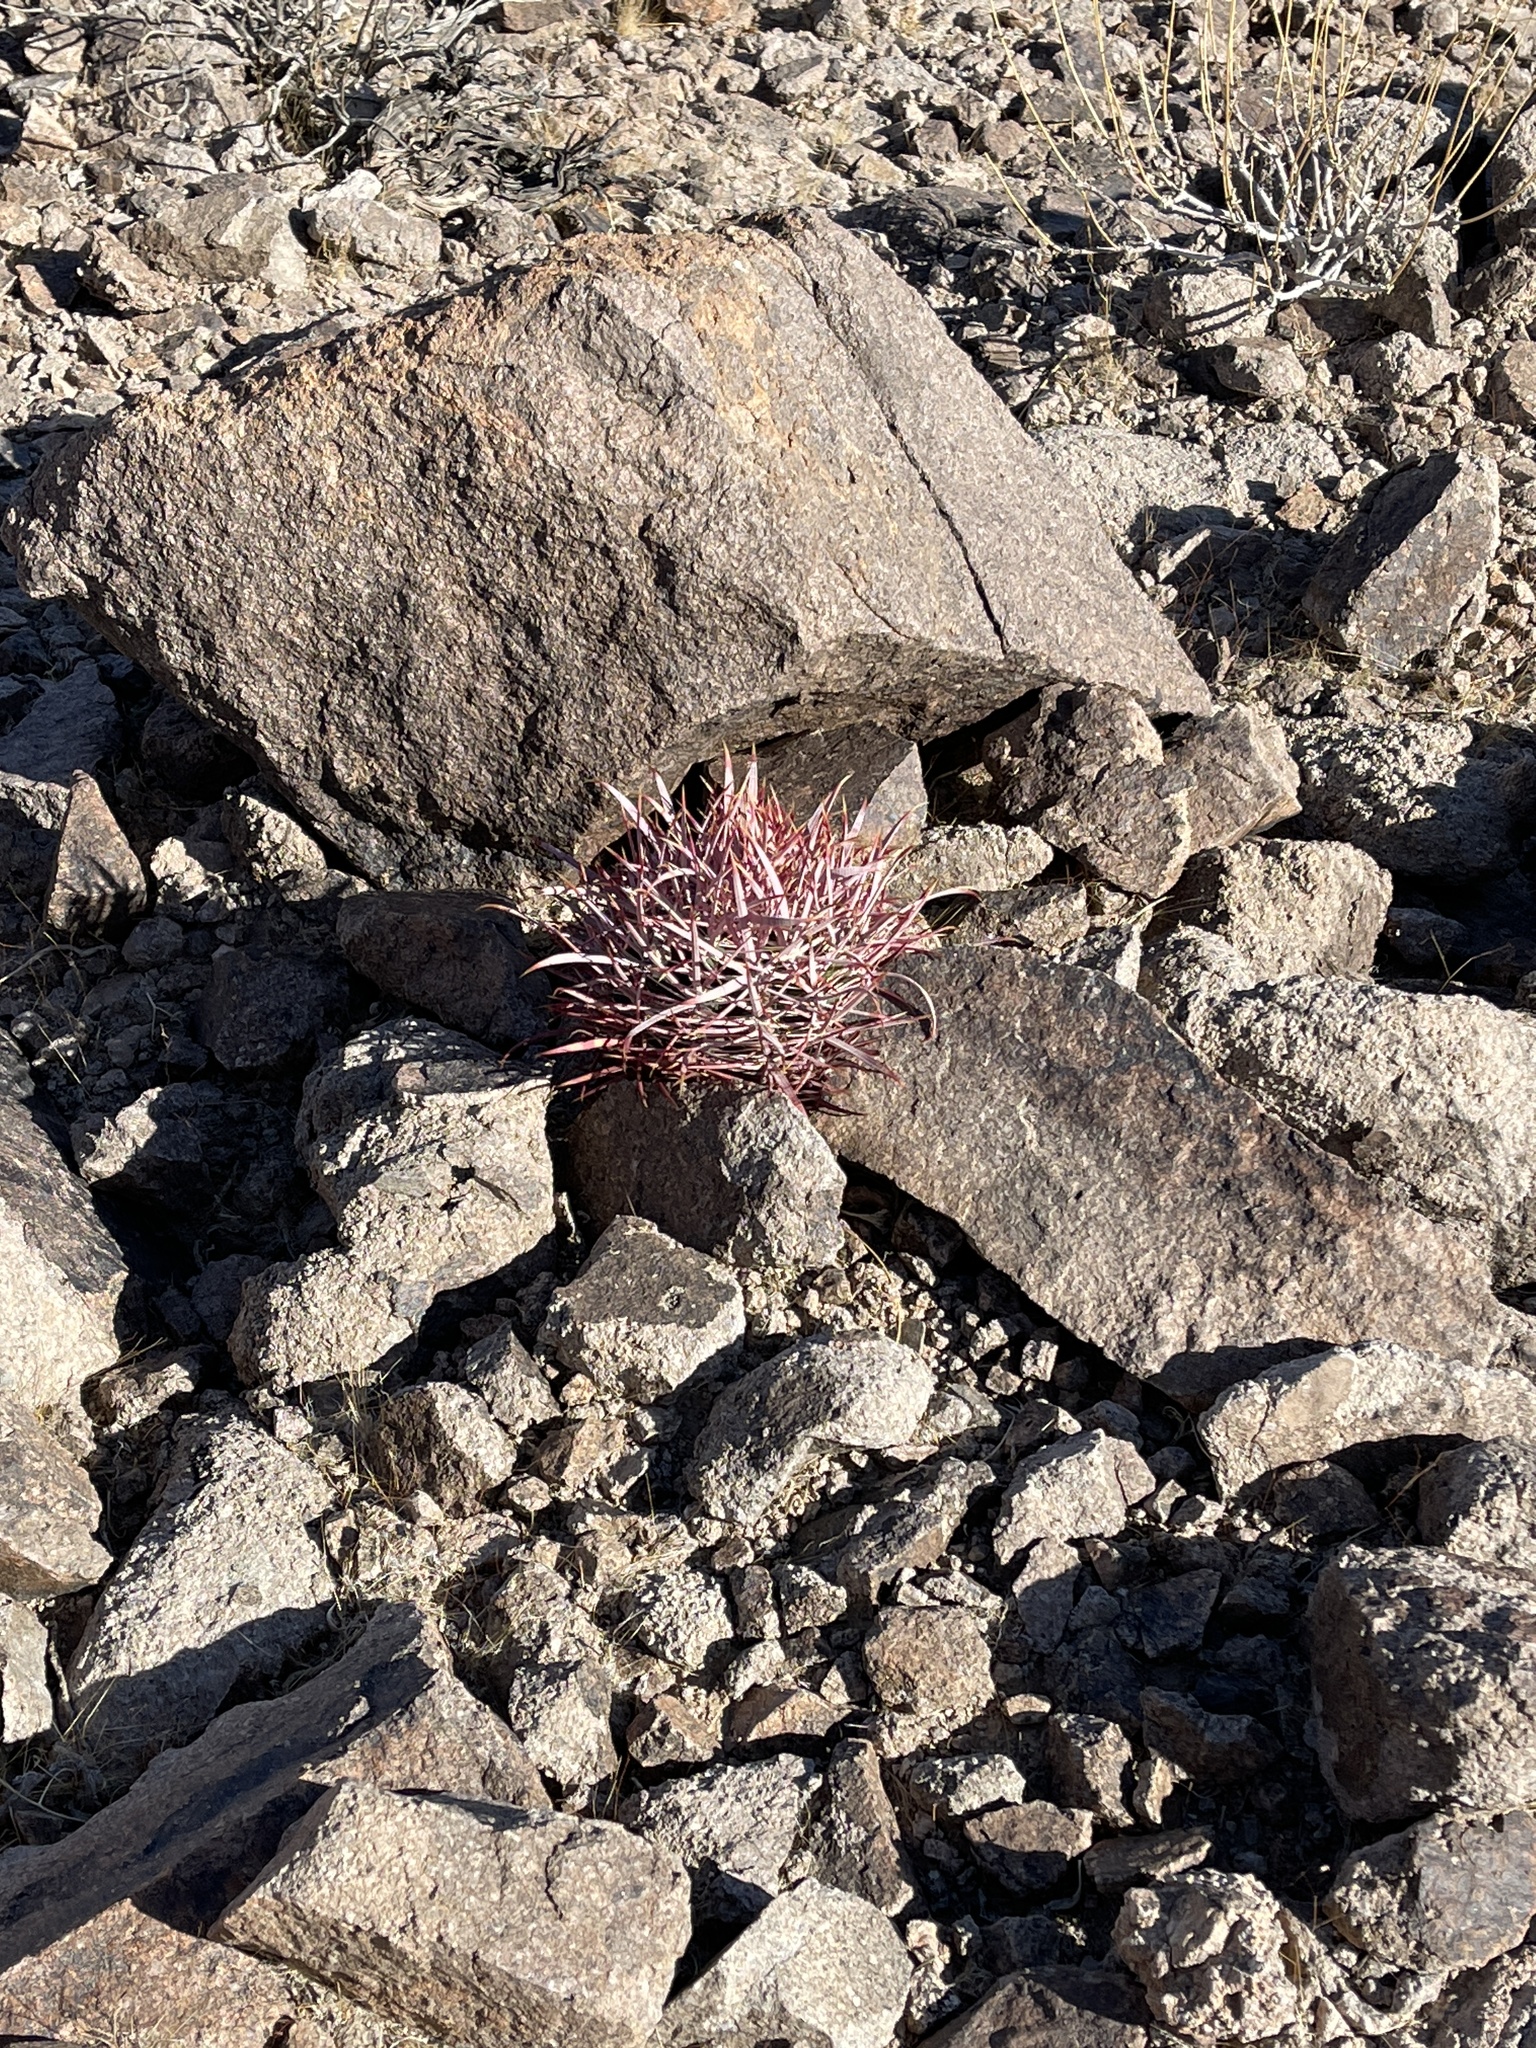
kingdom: Plantae
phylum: Tracheophyta
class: Magnoliopsida
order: Caryophyllales
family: Cactaceae
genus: Echinocactus
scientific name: Echinocactus polycephalus
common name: Cottontop cactus
